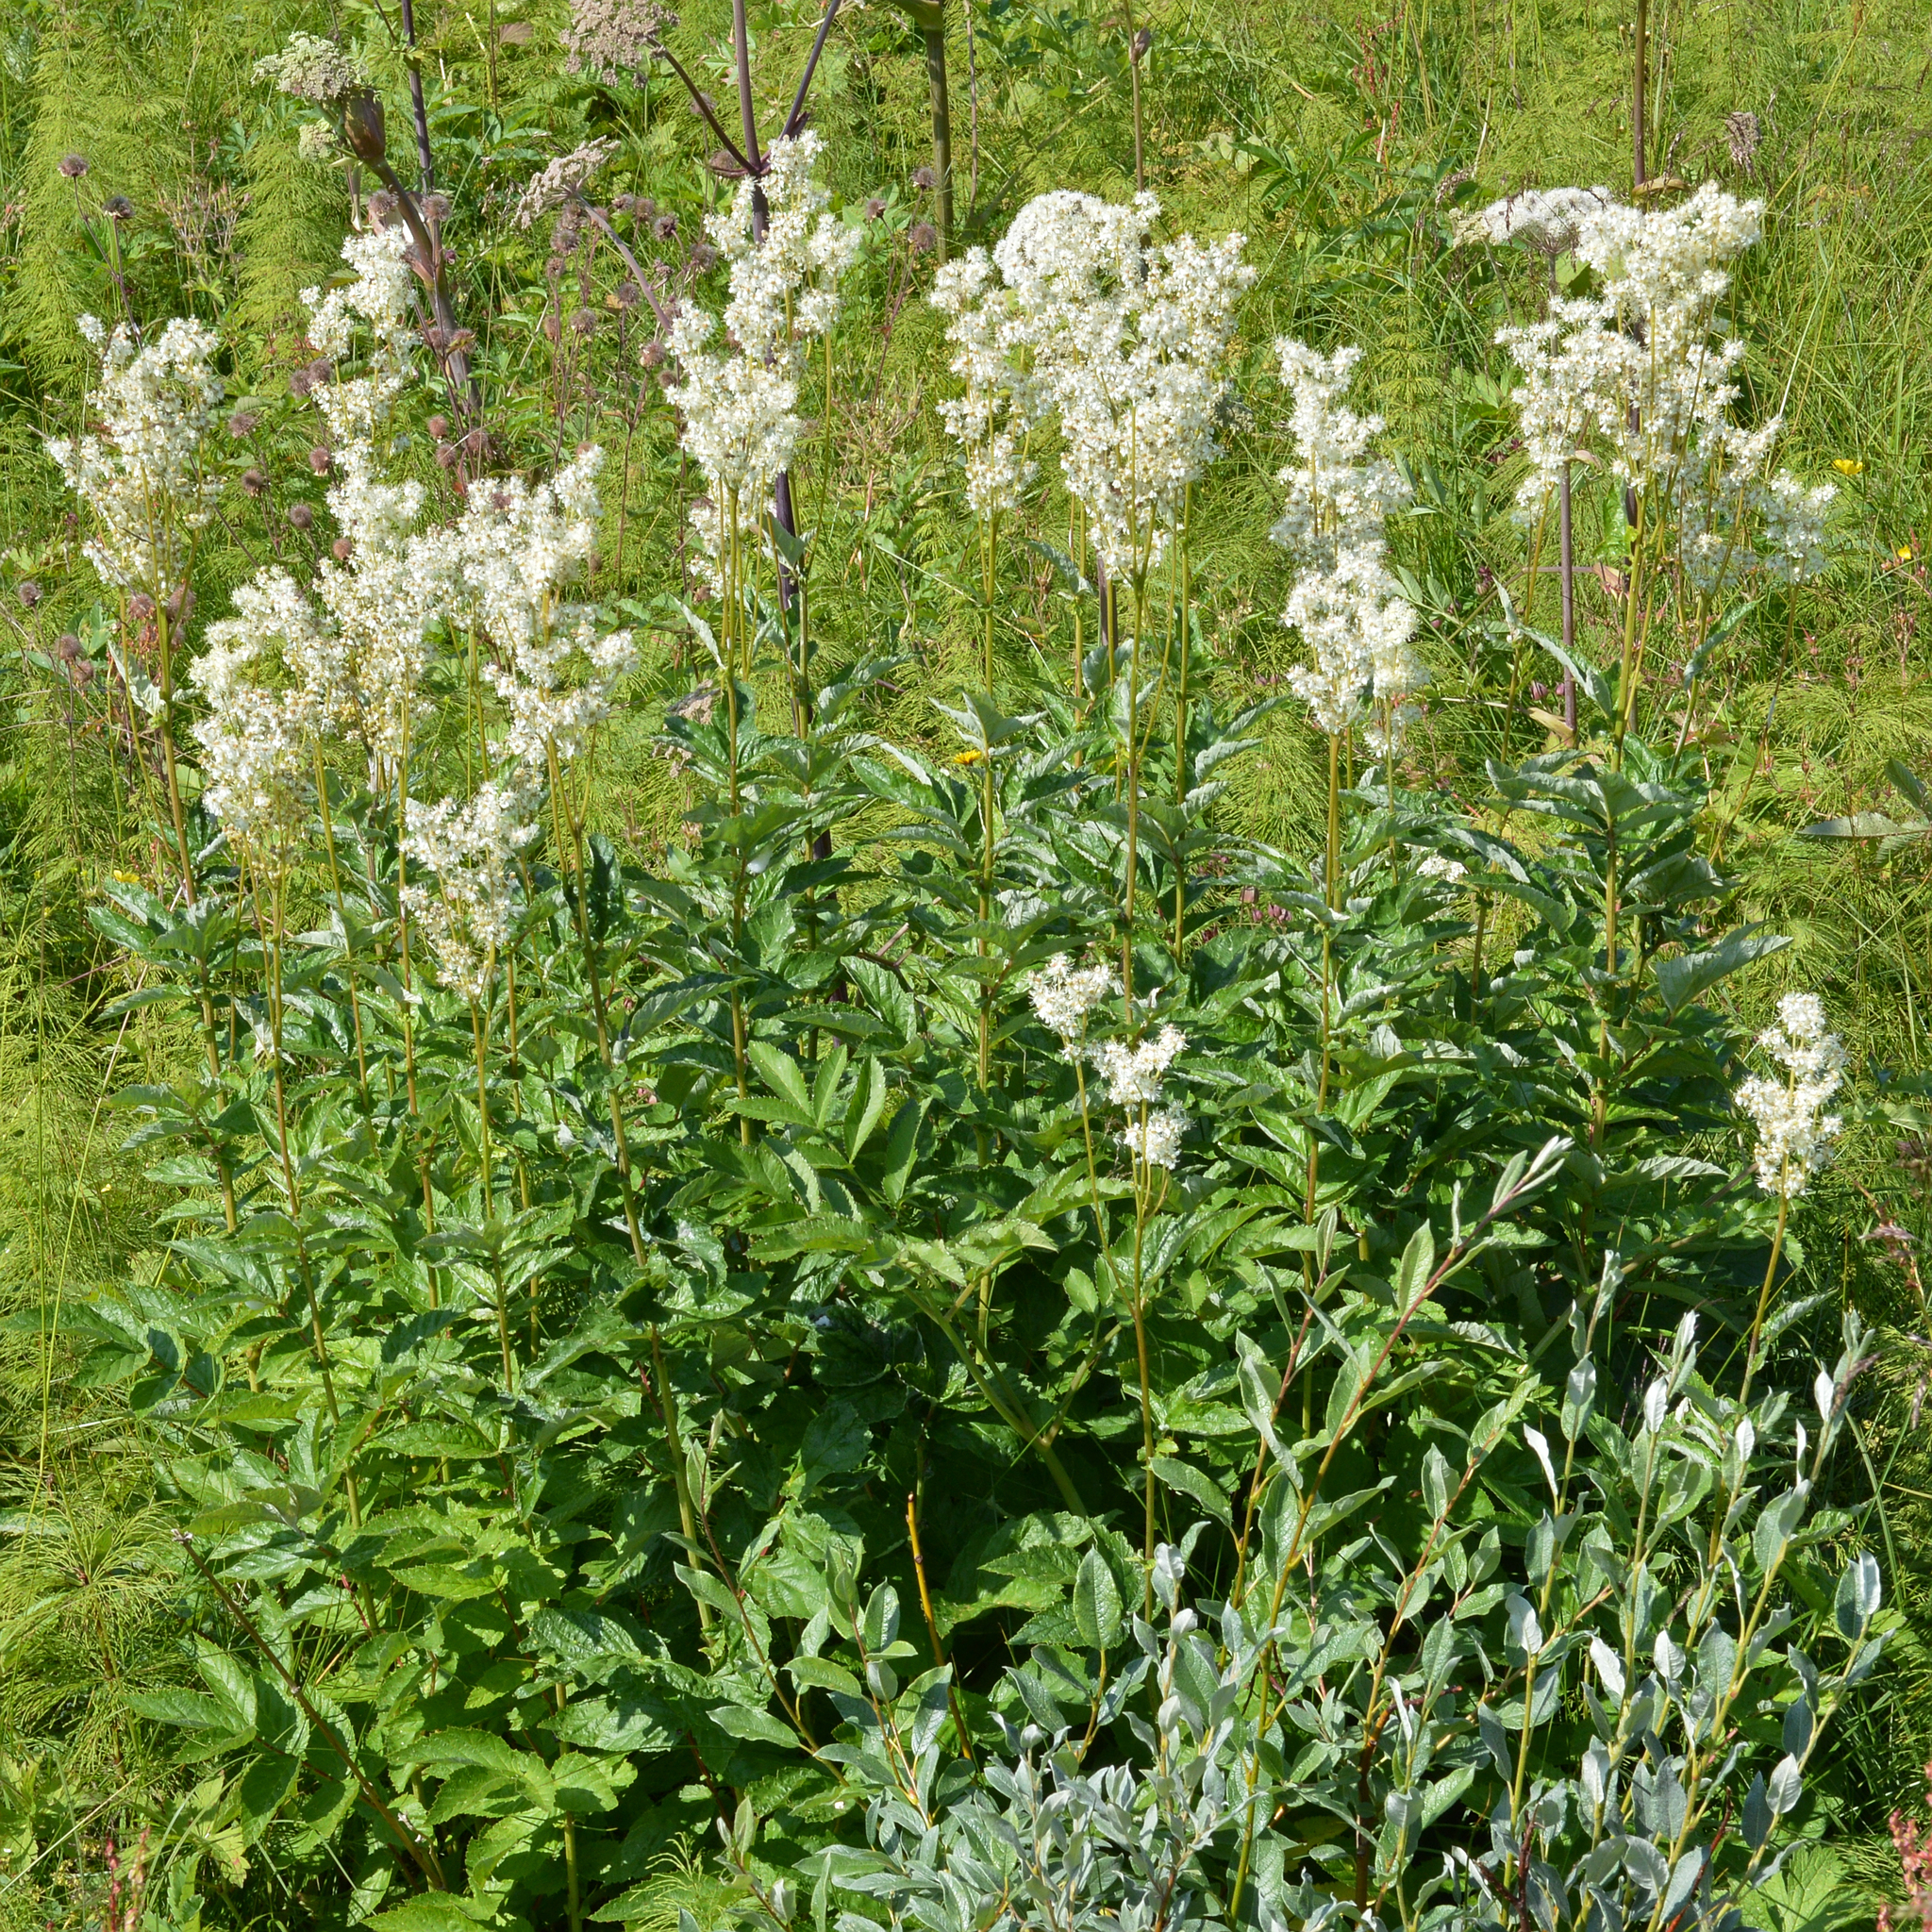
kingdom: Plantae
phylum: Tracheophyta
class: Magnoliopsida
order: Rosales
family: Rosaceae
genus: Filipendula
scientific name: Filipendula ulmaria
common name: Meadowsweet
